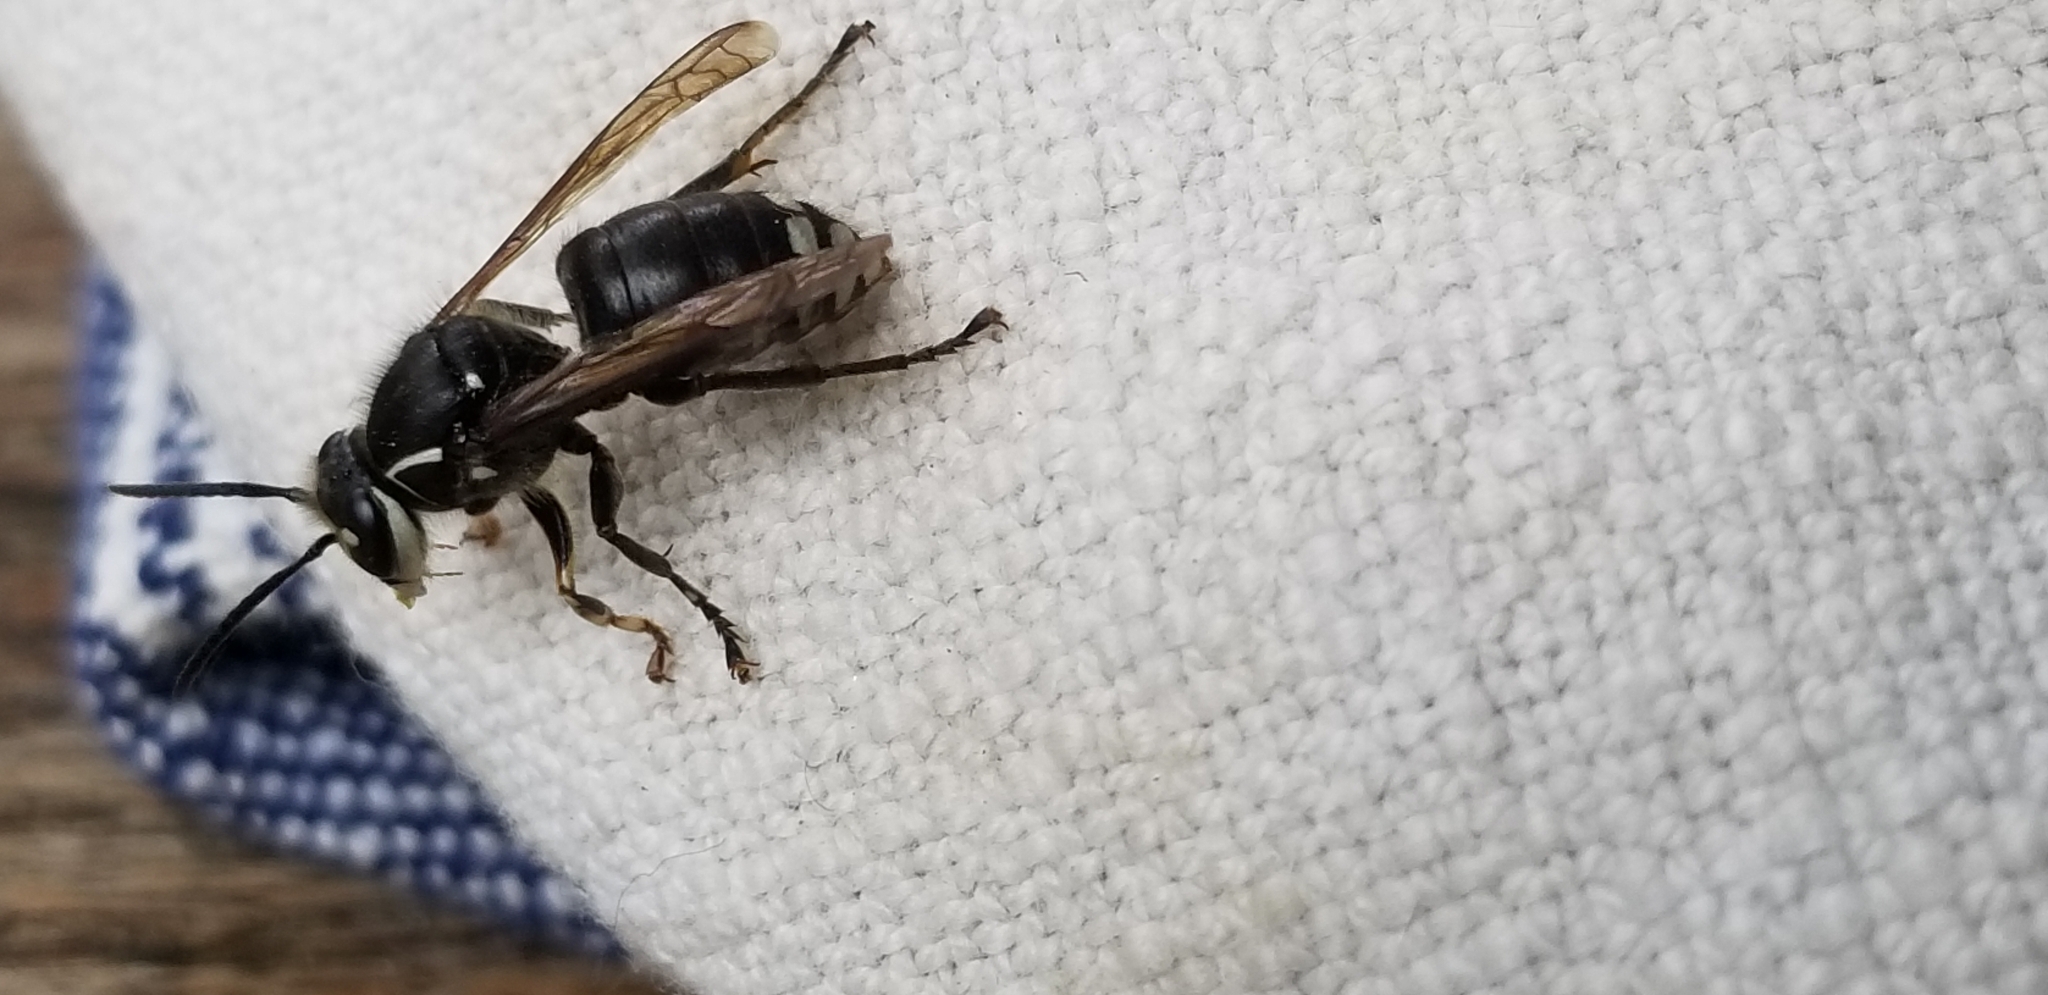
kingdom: Animalia
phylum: Arthropoda
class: Insecta
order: Hymenoptera
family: Vespidae
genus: Dolichovespula
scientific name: Dolichovespula maculata
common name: Bald-faced hornet
